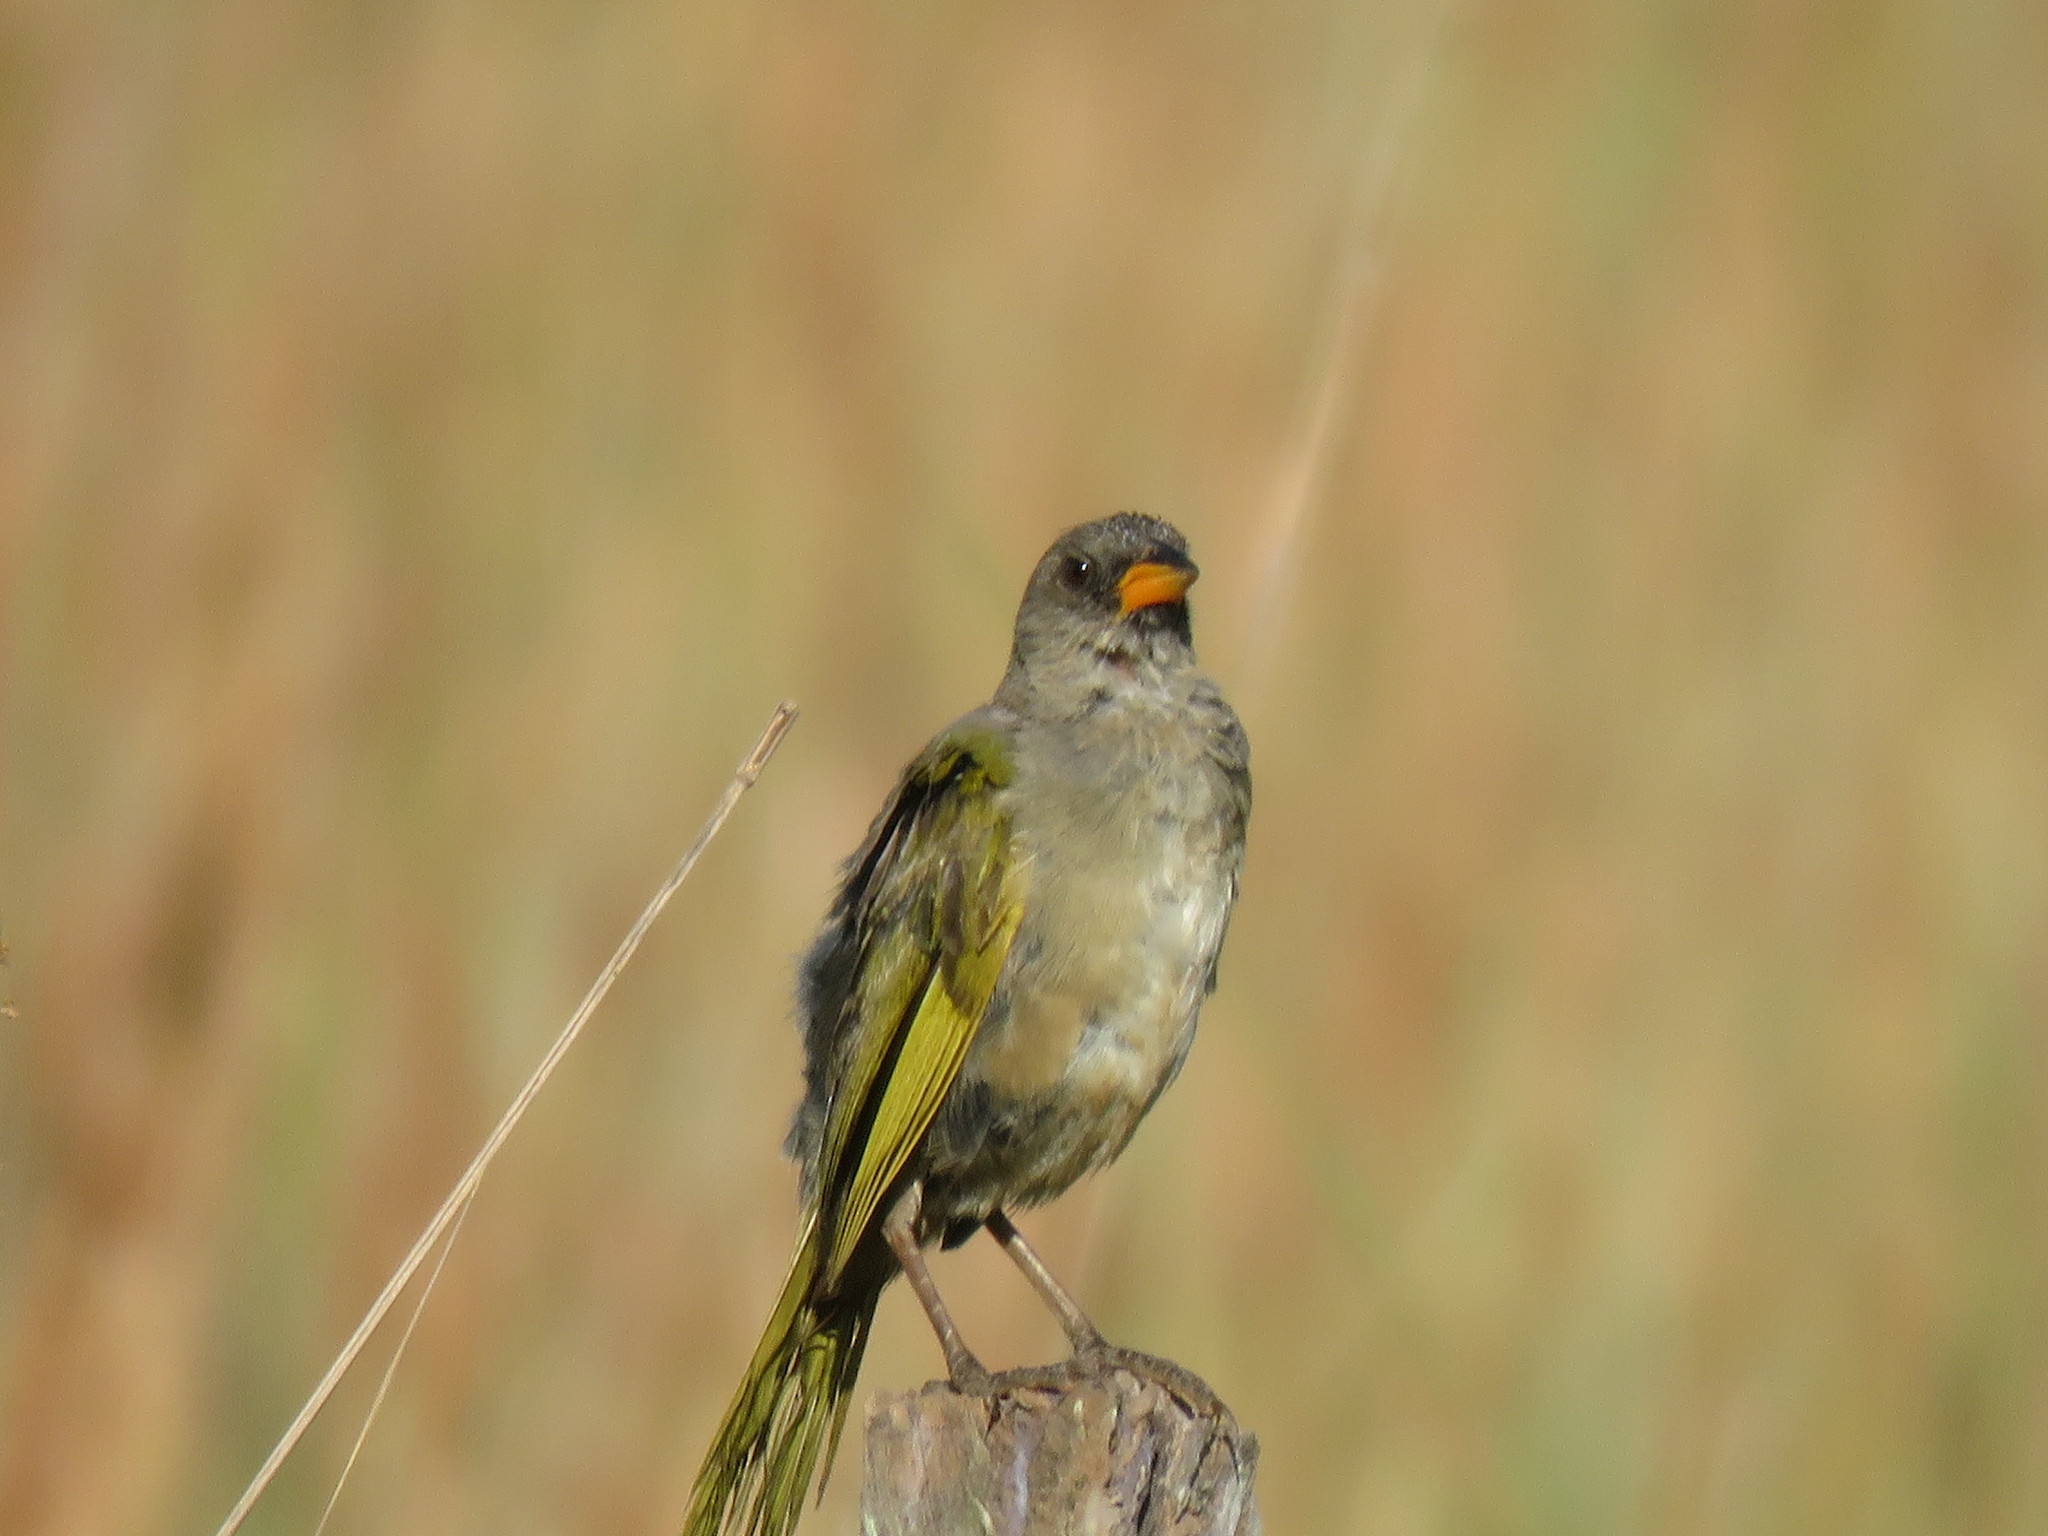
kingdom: Animalia
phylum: Chordata
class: Aves
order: Passeriformes
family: Thraupidae
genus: Embernagra
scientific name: Embernagra platensis
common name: Pampa finch
